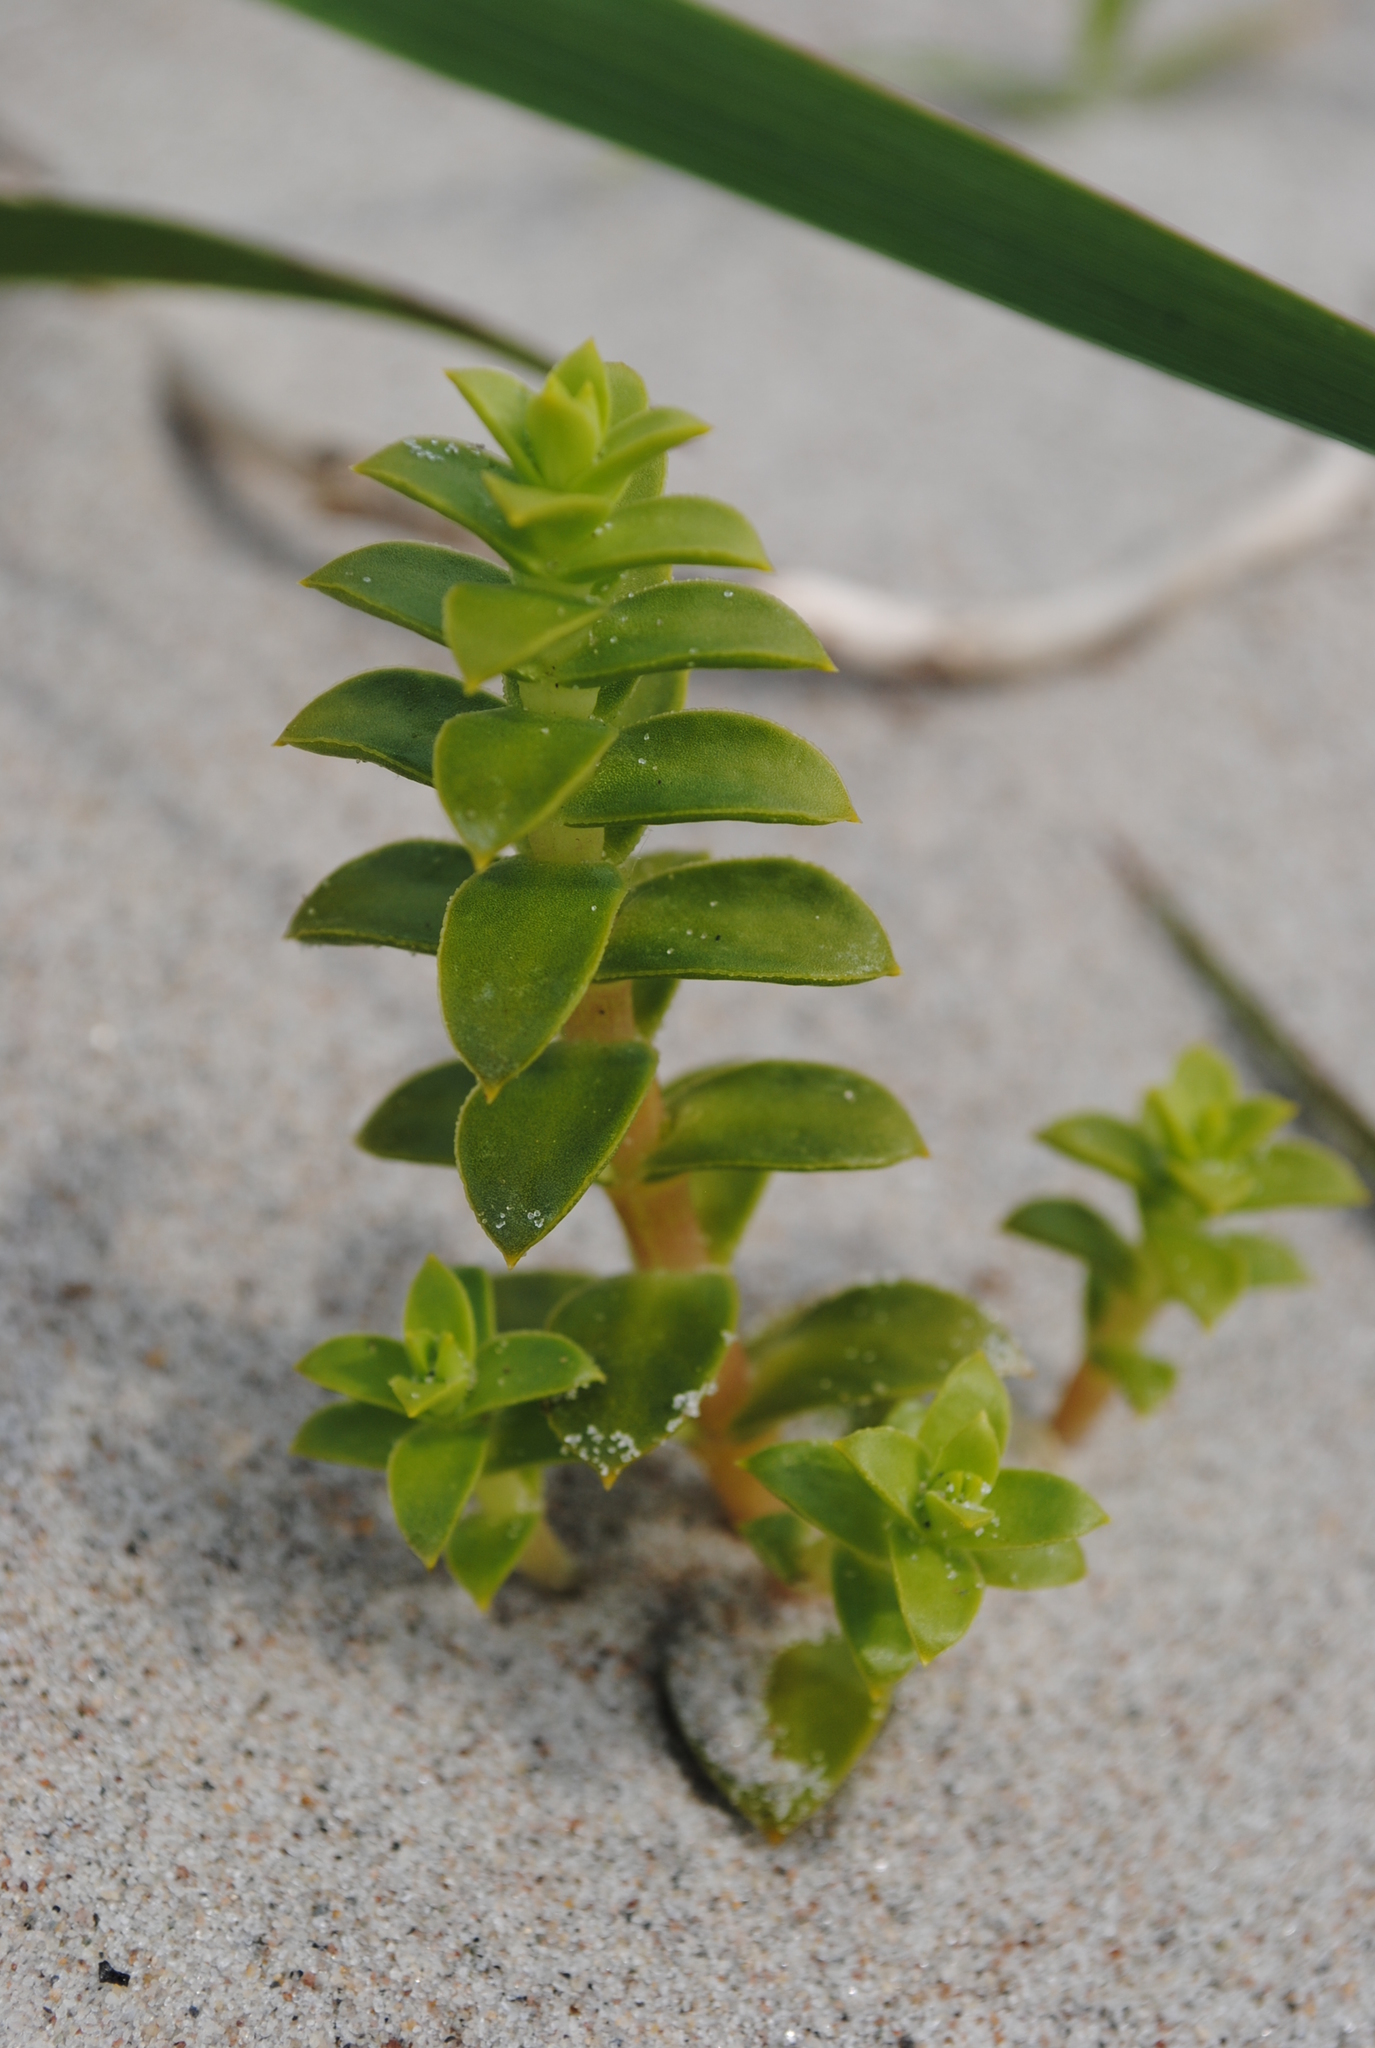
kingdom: Plantae
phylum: Tracheophyta
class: Magnoliopsida
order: Caryophyllales
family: Caryophyllaceae
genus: Honckenya
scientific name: Honckenya peploides
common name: Sea sandwort
